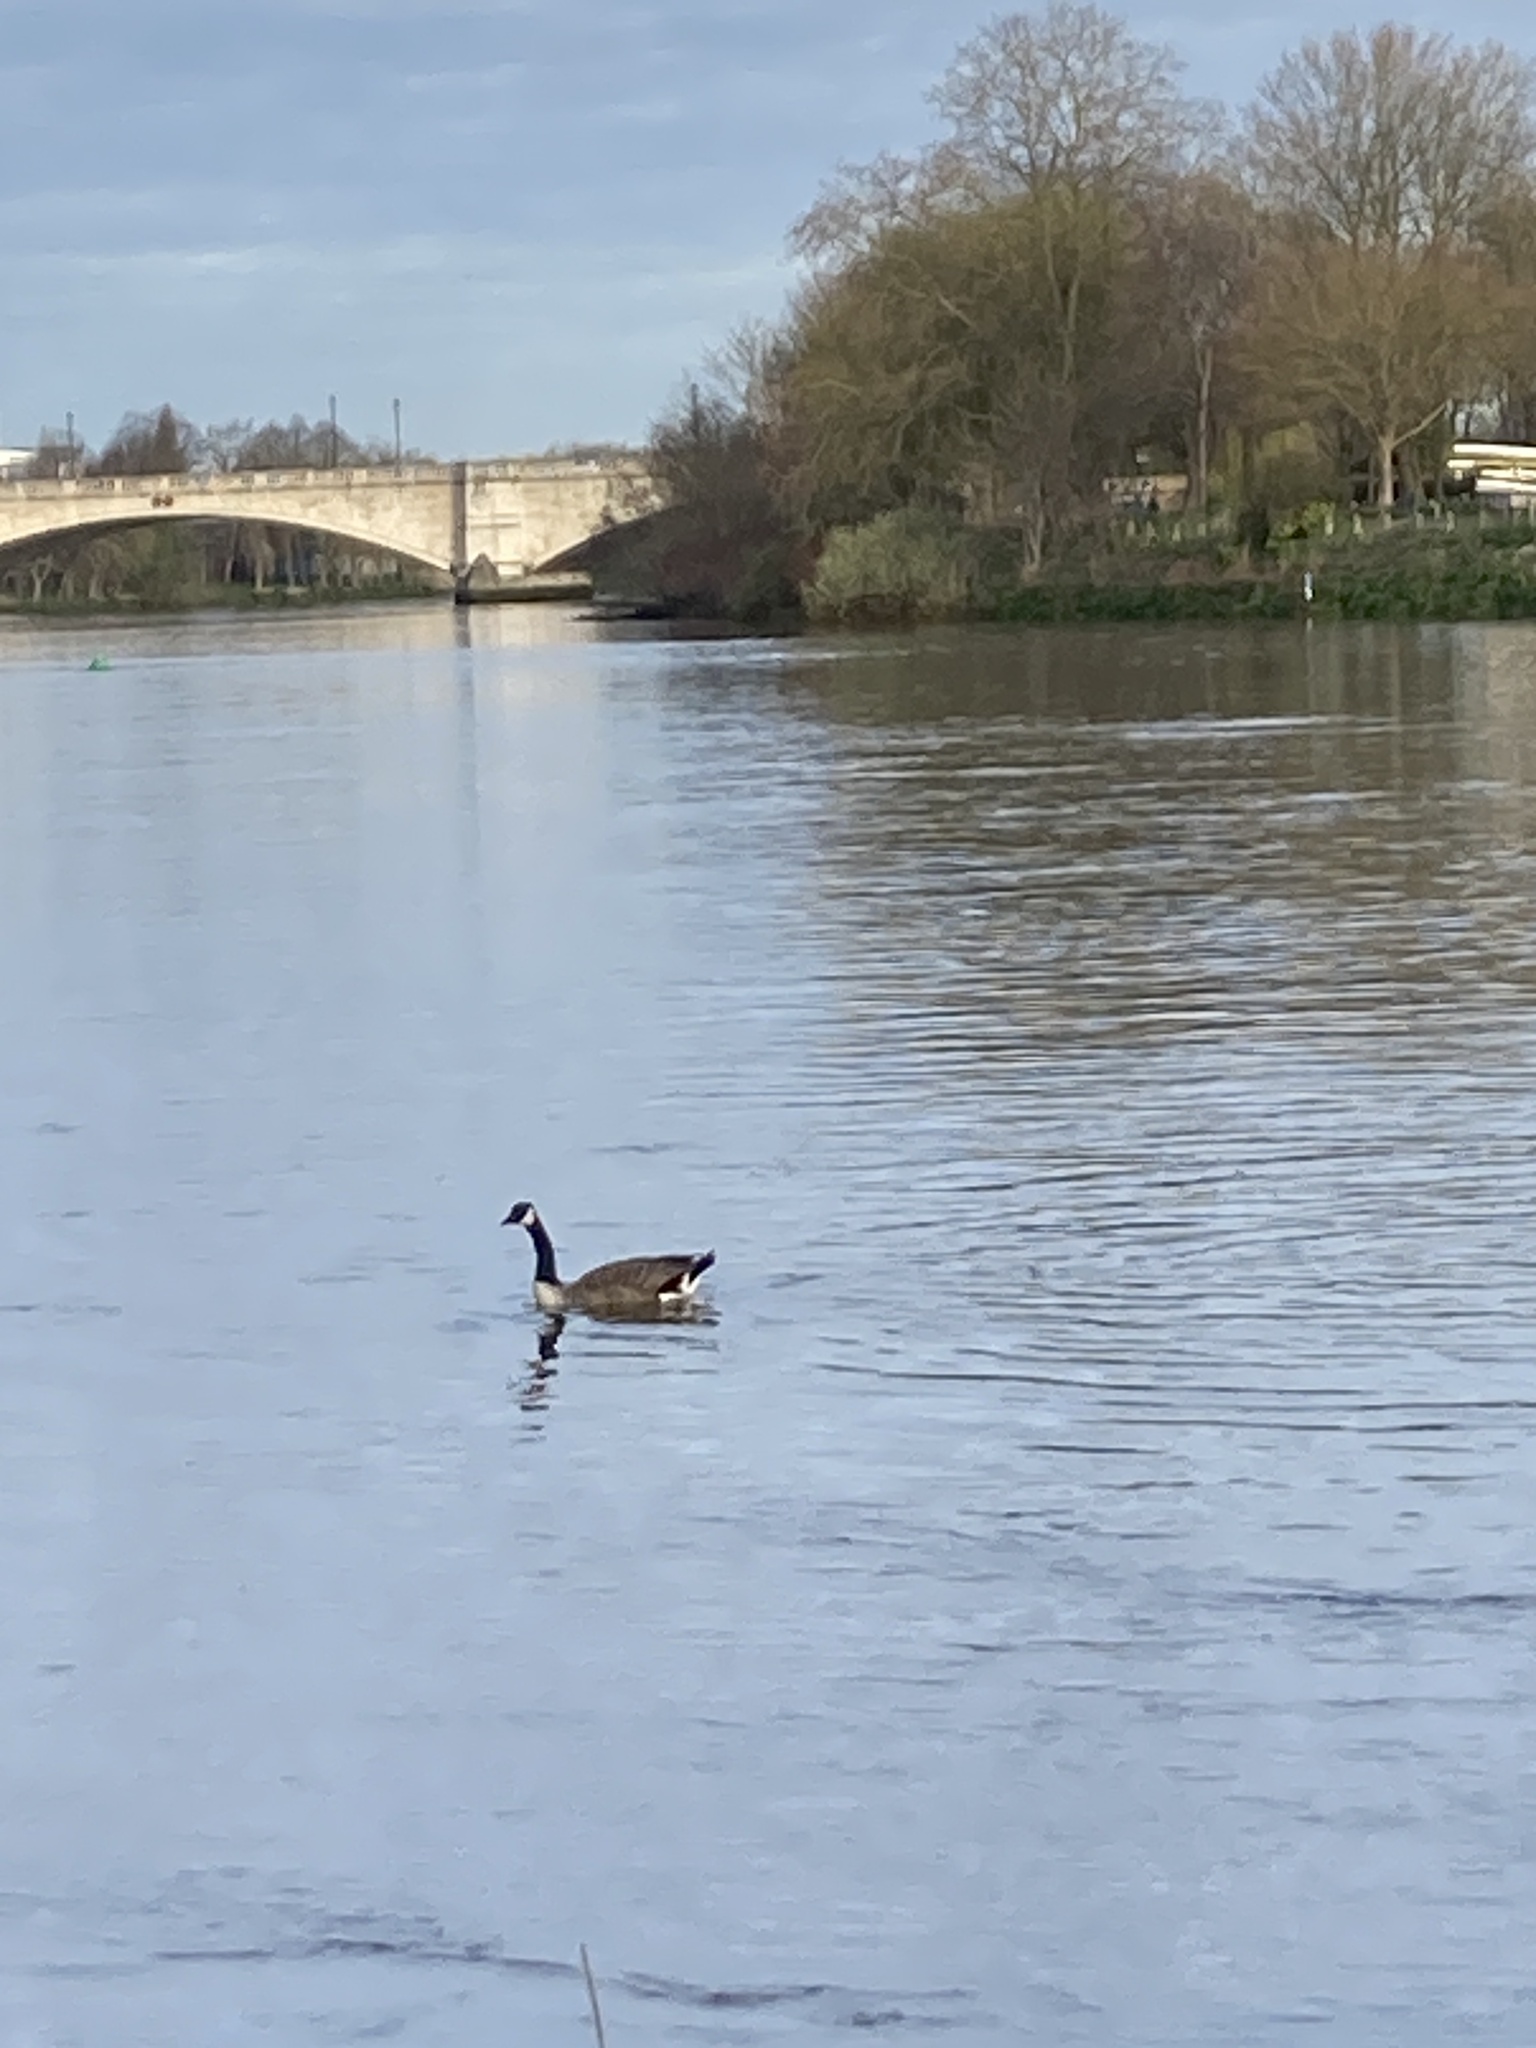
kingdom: Animalia
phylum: Chordata
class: Aves
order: Anseriformes
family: Anatidae
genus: Branta
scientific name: Branta canadensis
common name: Canada goose
